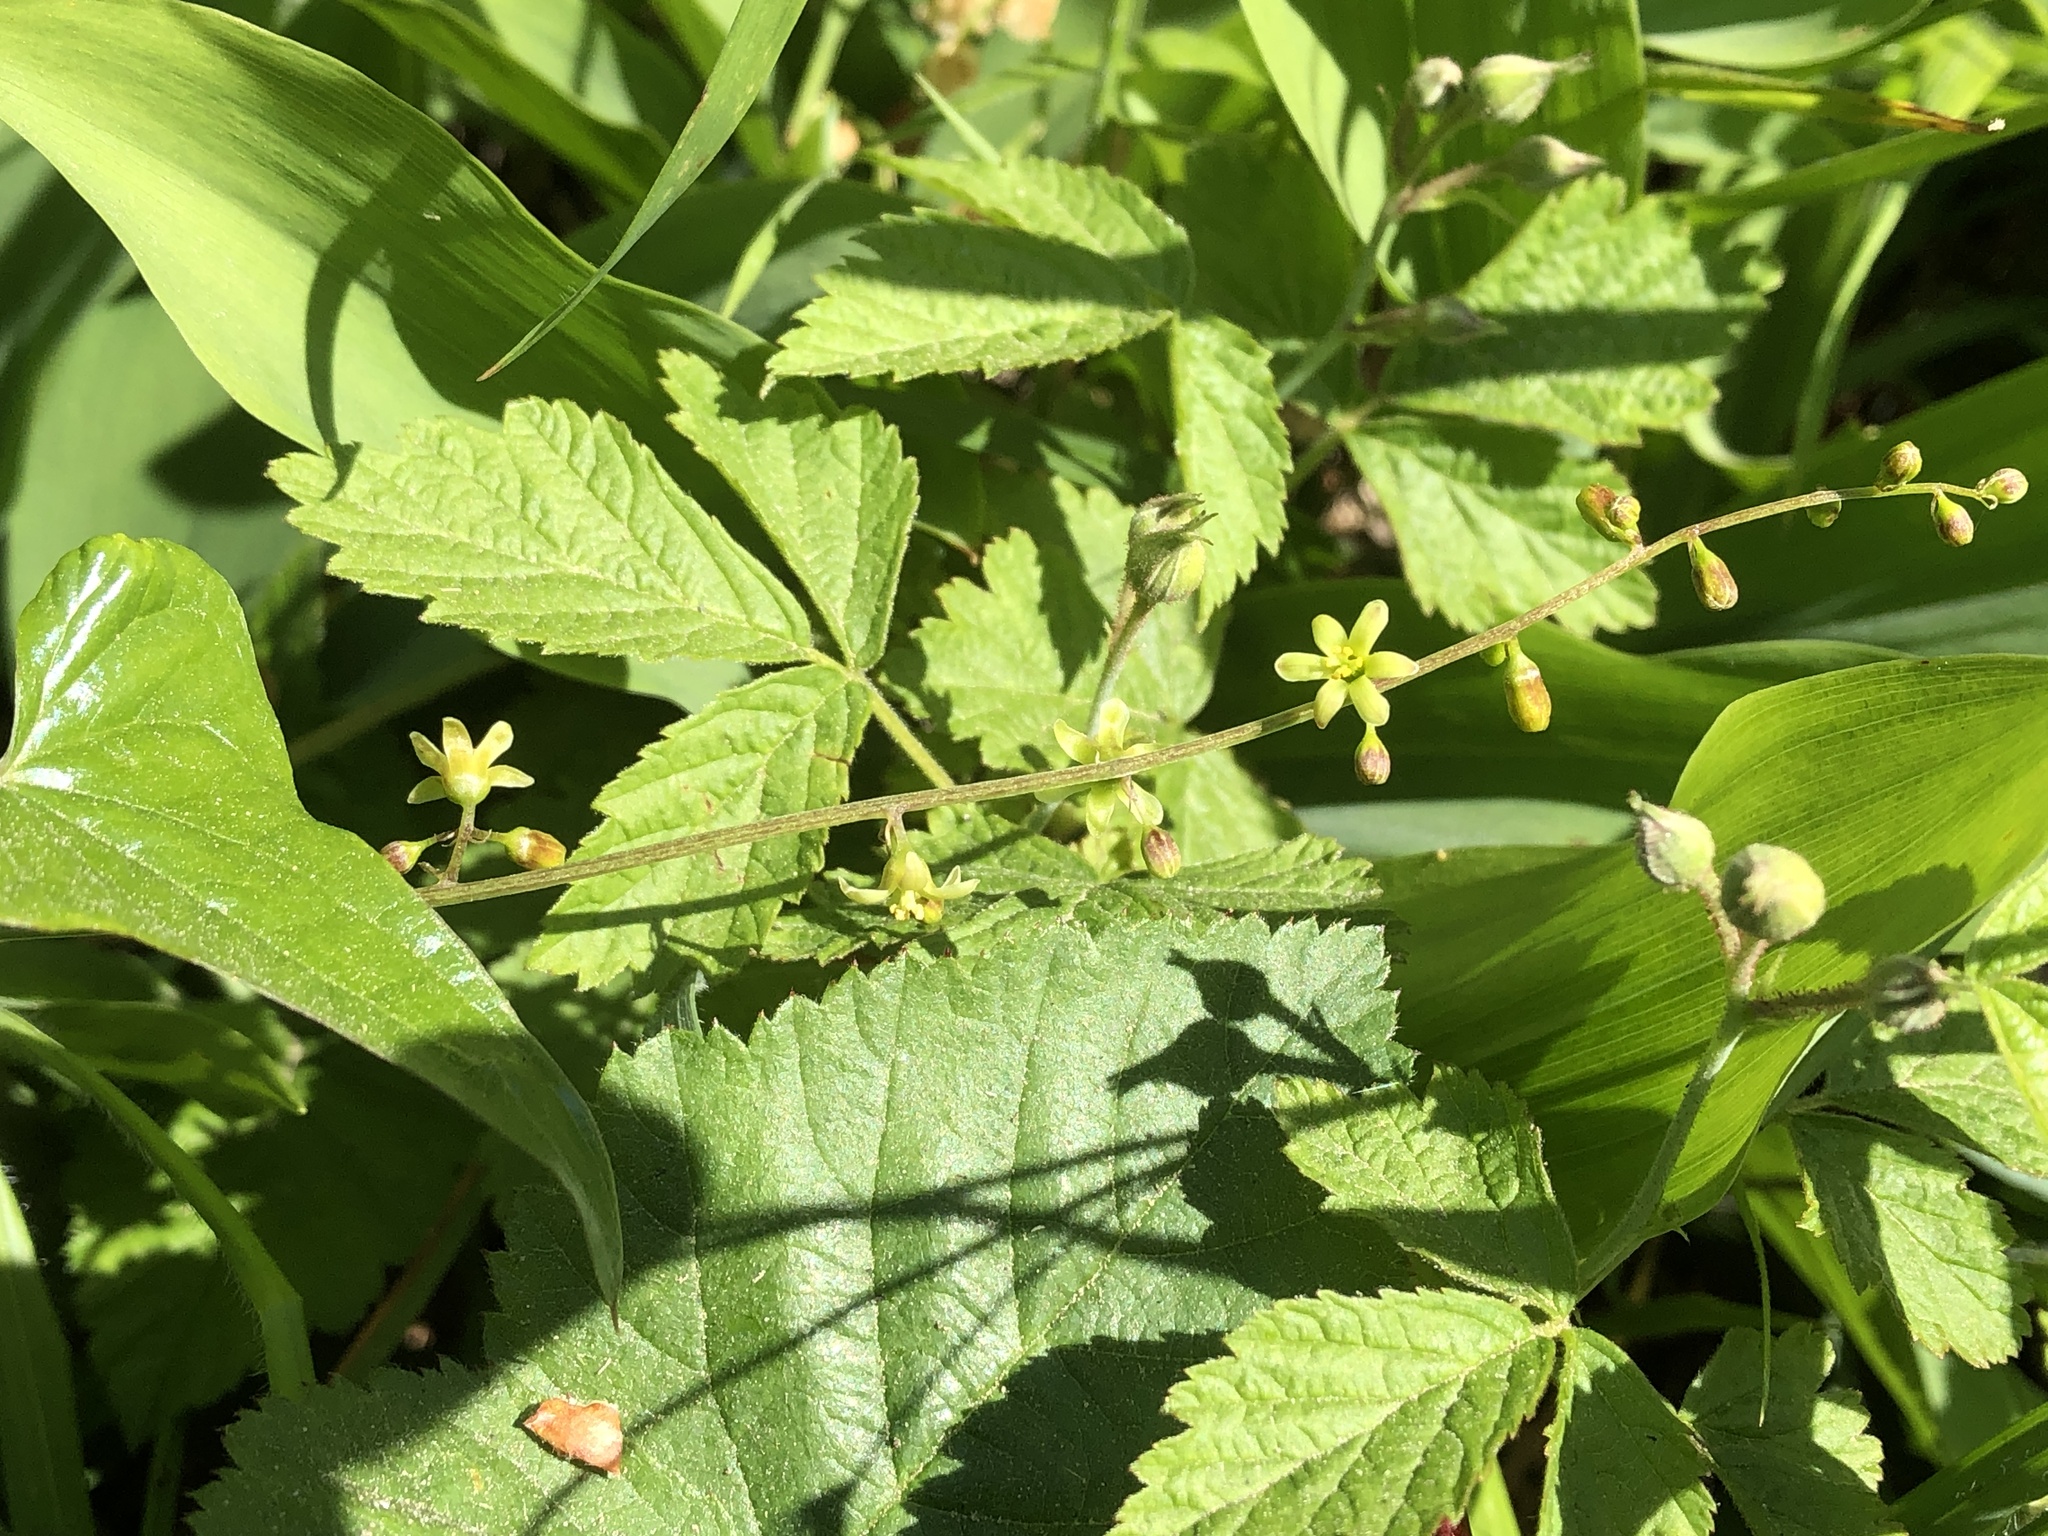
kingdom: Plantae
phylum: Tracheophyta
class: Liliopsida
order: Dioscoreales
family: Dioscoreaceae
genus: Dioscorea
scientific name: Dioscorea communis
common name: Black-bindweed
